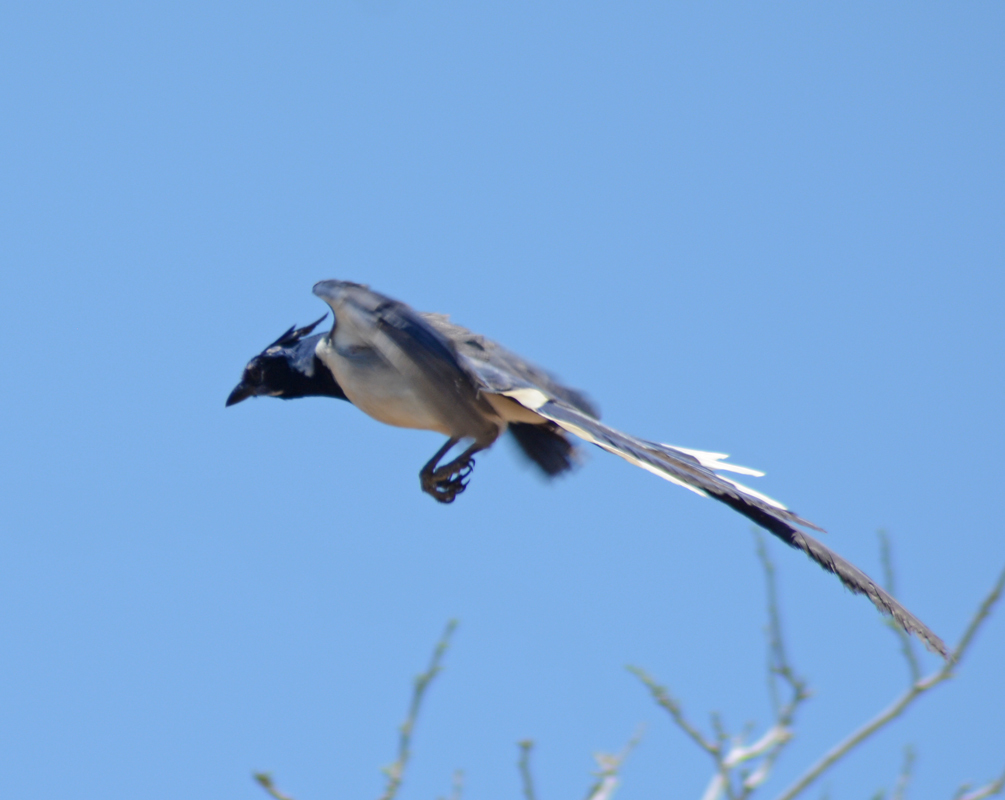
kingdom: Animalia
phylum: Chordata
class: Aves
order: Passeriformes
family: Corvidae
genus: Calocitta
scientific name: Calocitta colliei
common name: Black-throated magpie-jay
